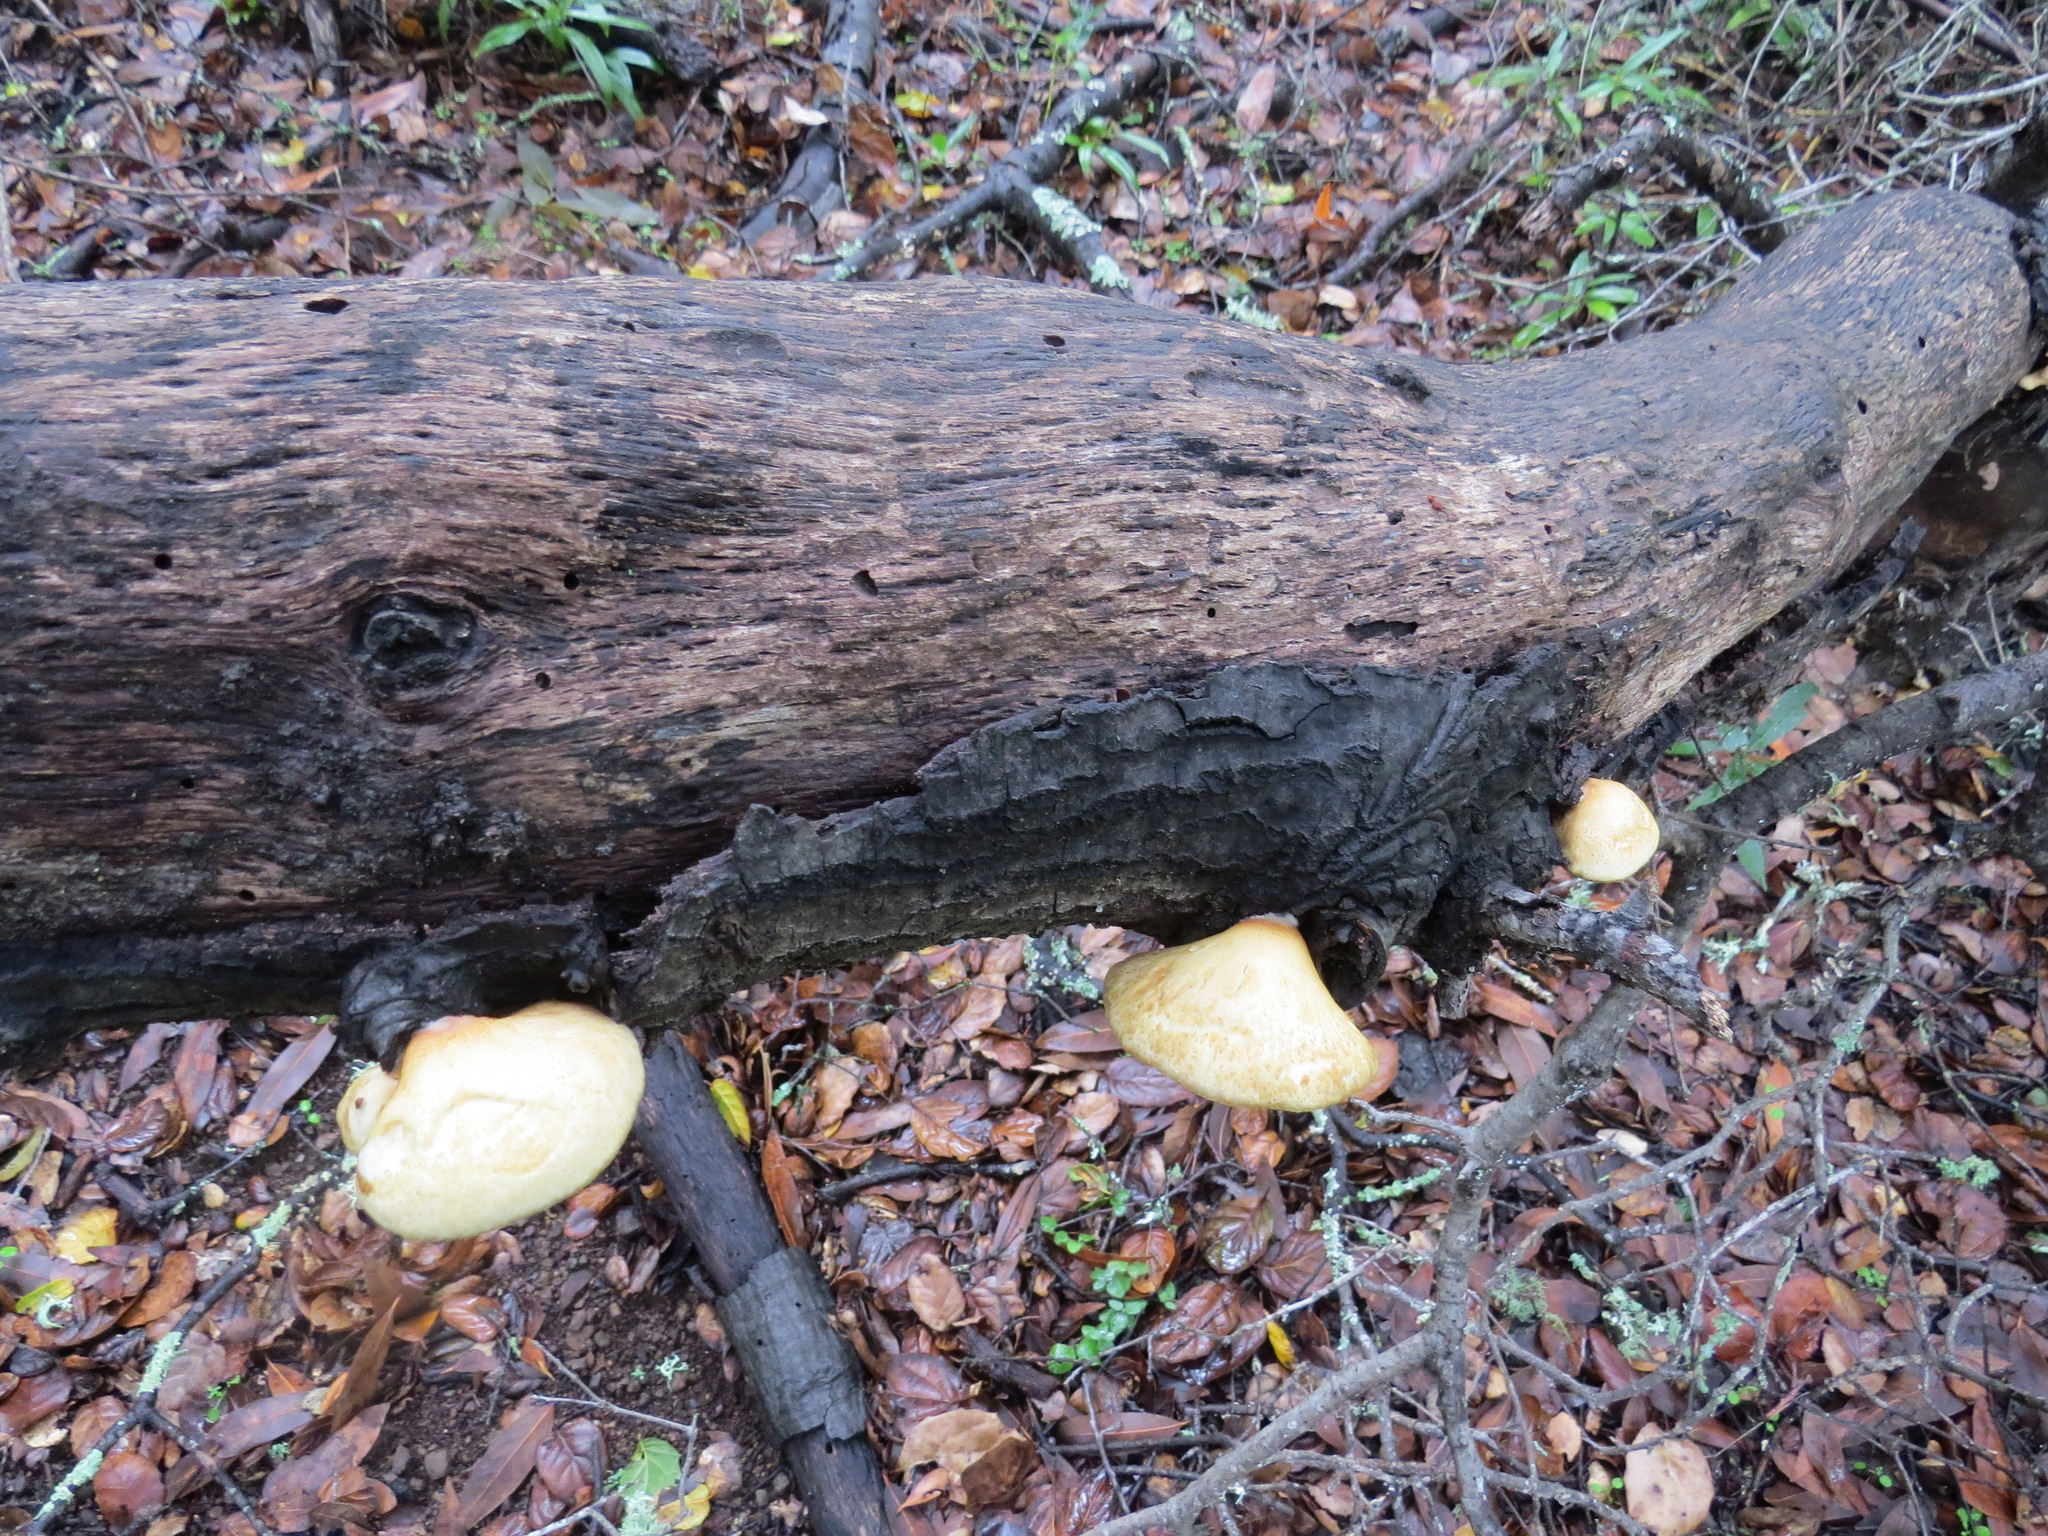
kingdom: Fungi
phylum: Basidiomycota
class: Agaricomycetes
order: Agaricales
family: Crepidotaceae
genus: Crepidotus
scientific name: Crepidotus mollis
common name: Peeling oysterling
